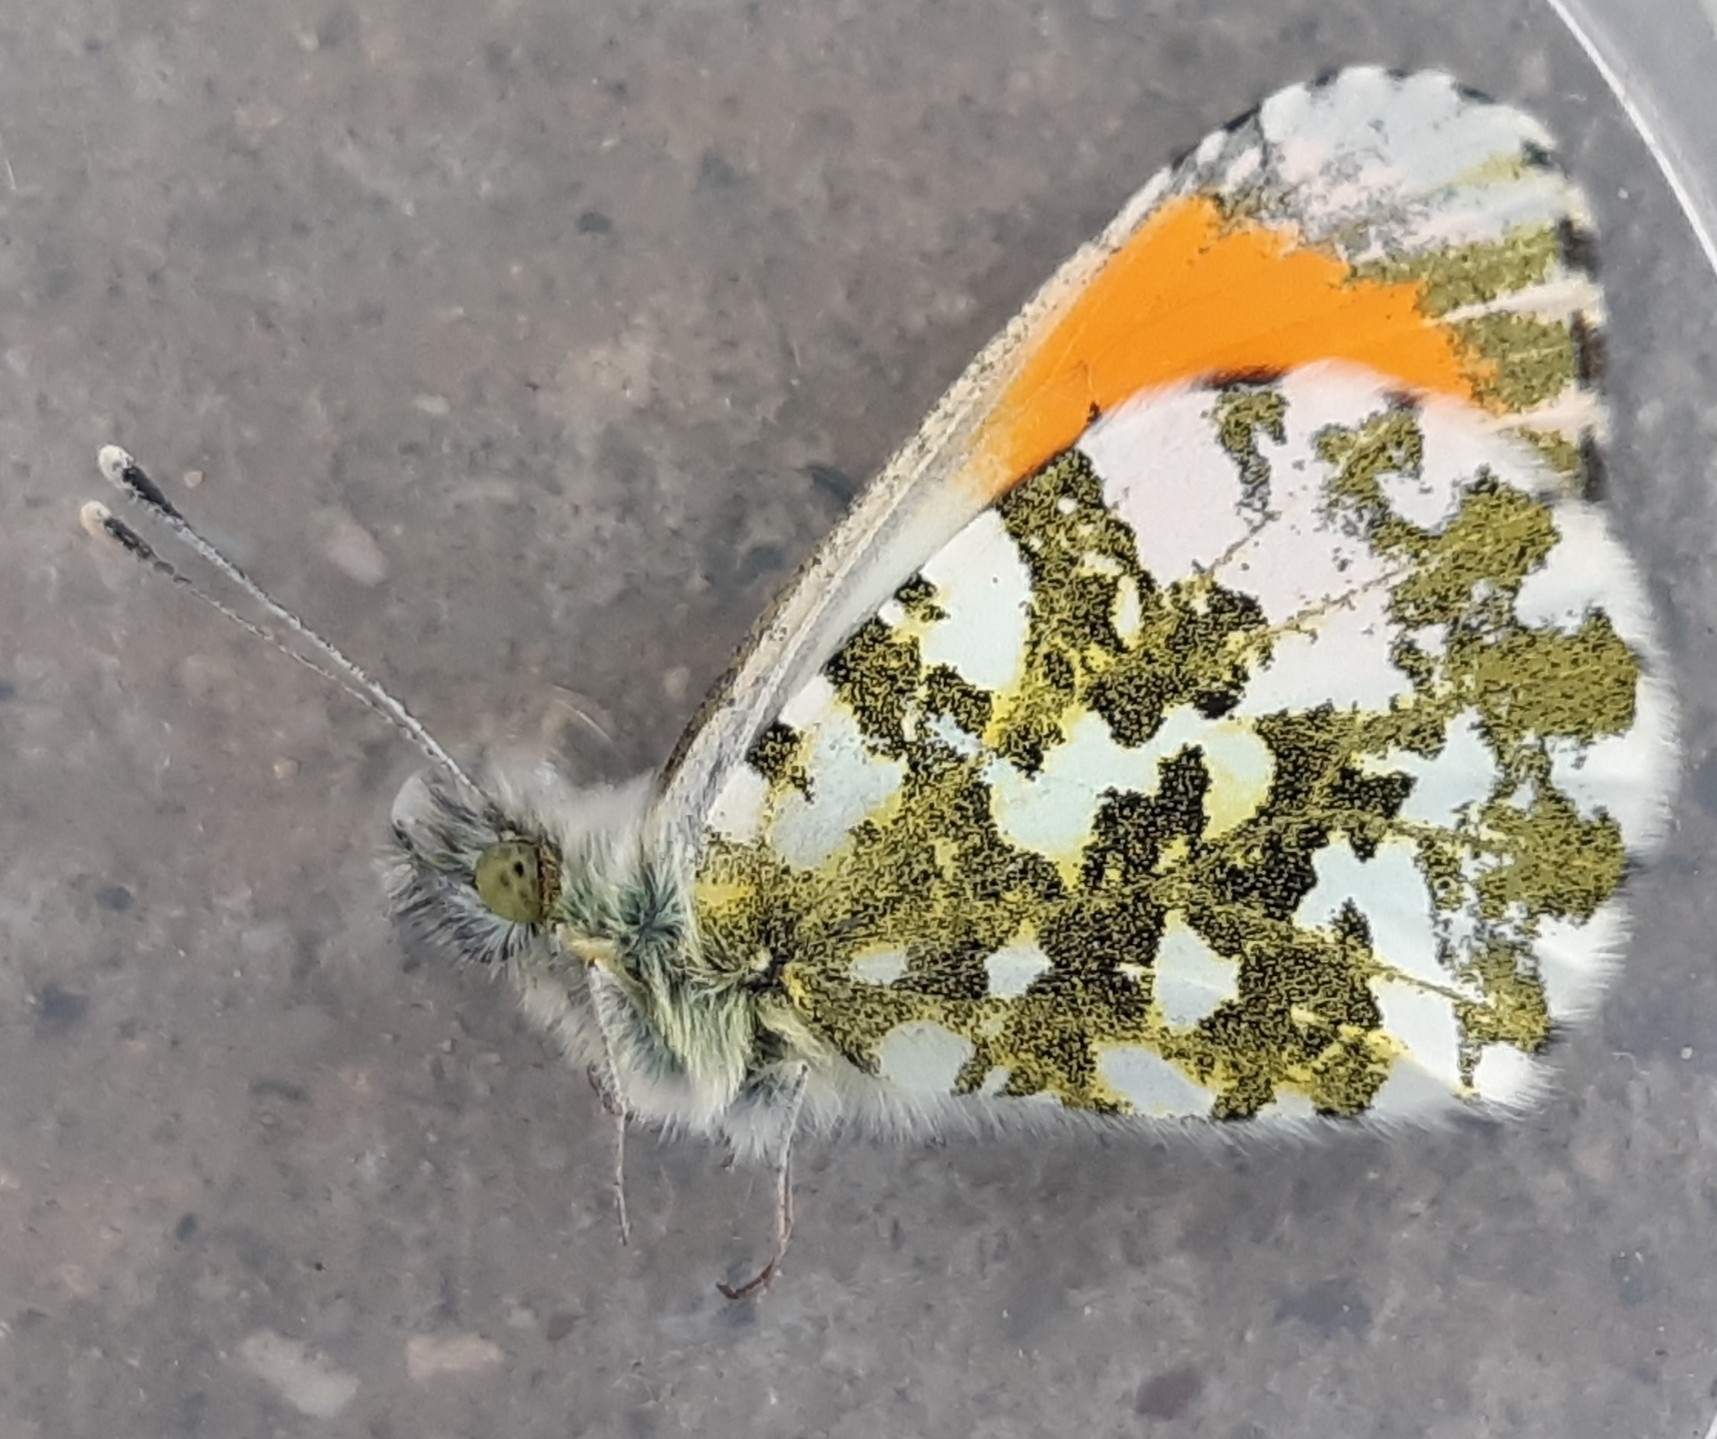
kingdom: Animalia
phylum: Arthropoda
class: Insecta
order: Lepidoptera
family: Pieridae
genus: Anthocharis
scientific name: Anthocharis cardamines
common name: Orange-tip
